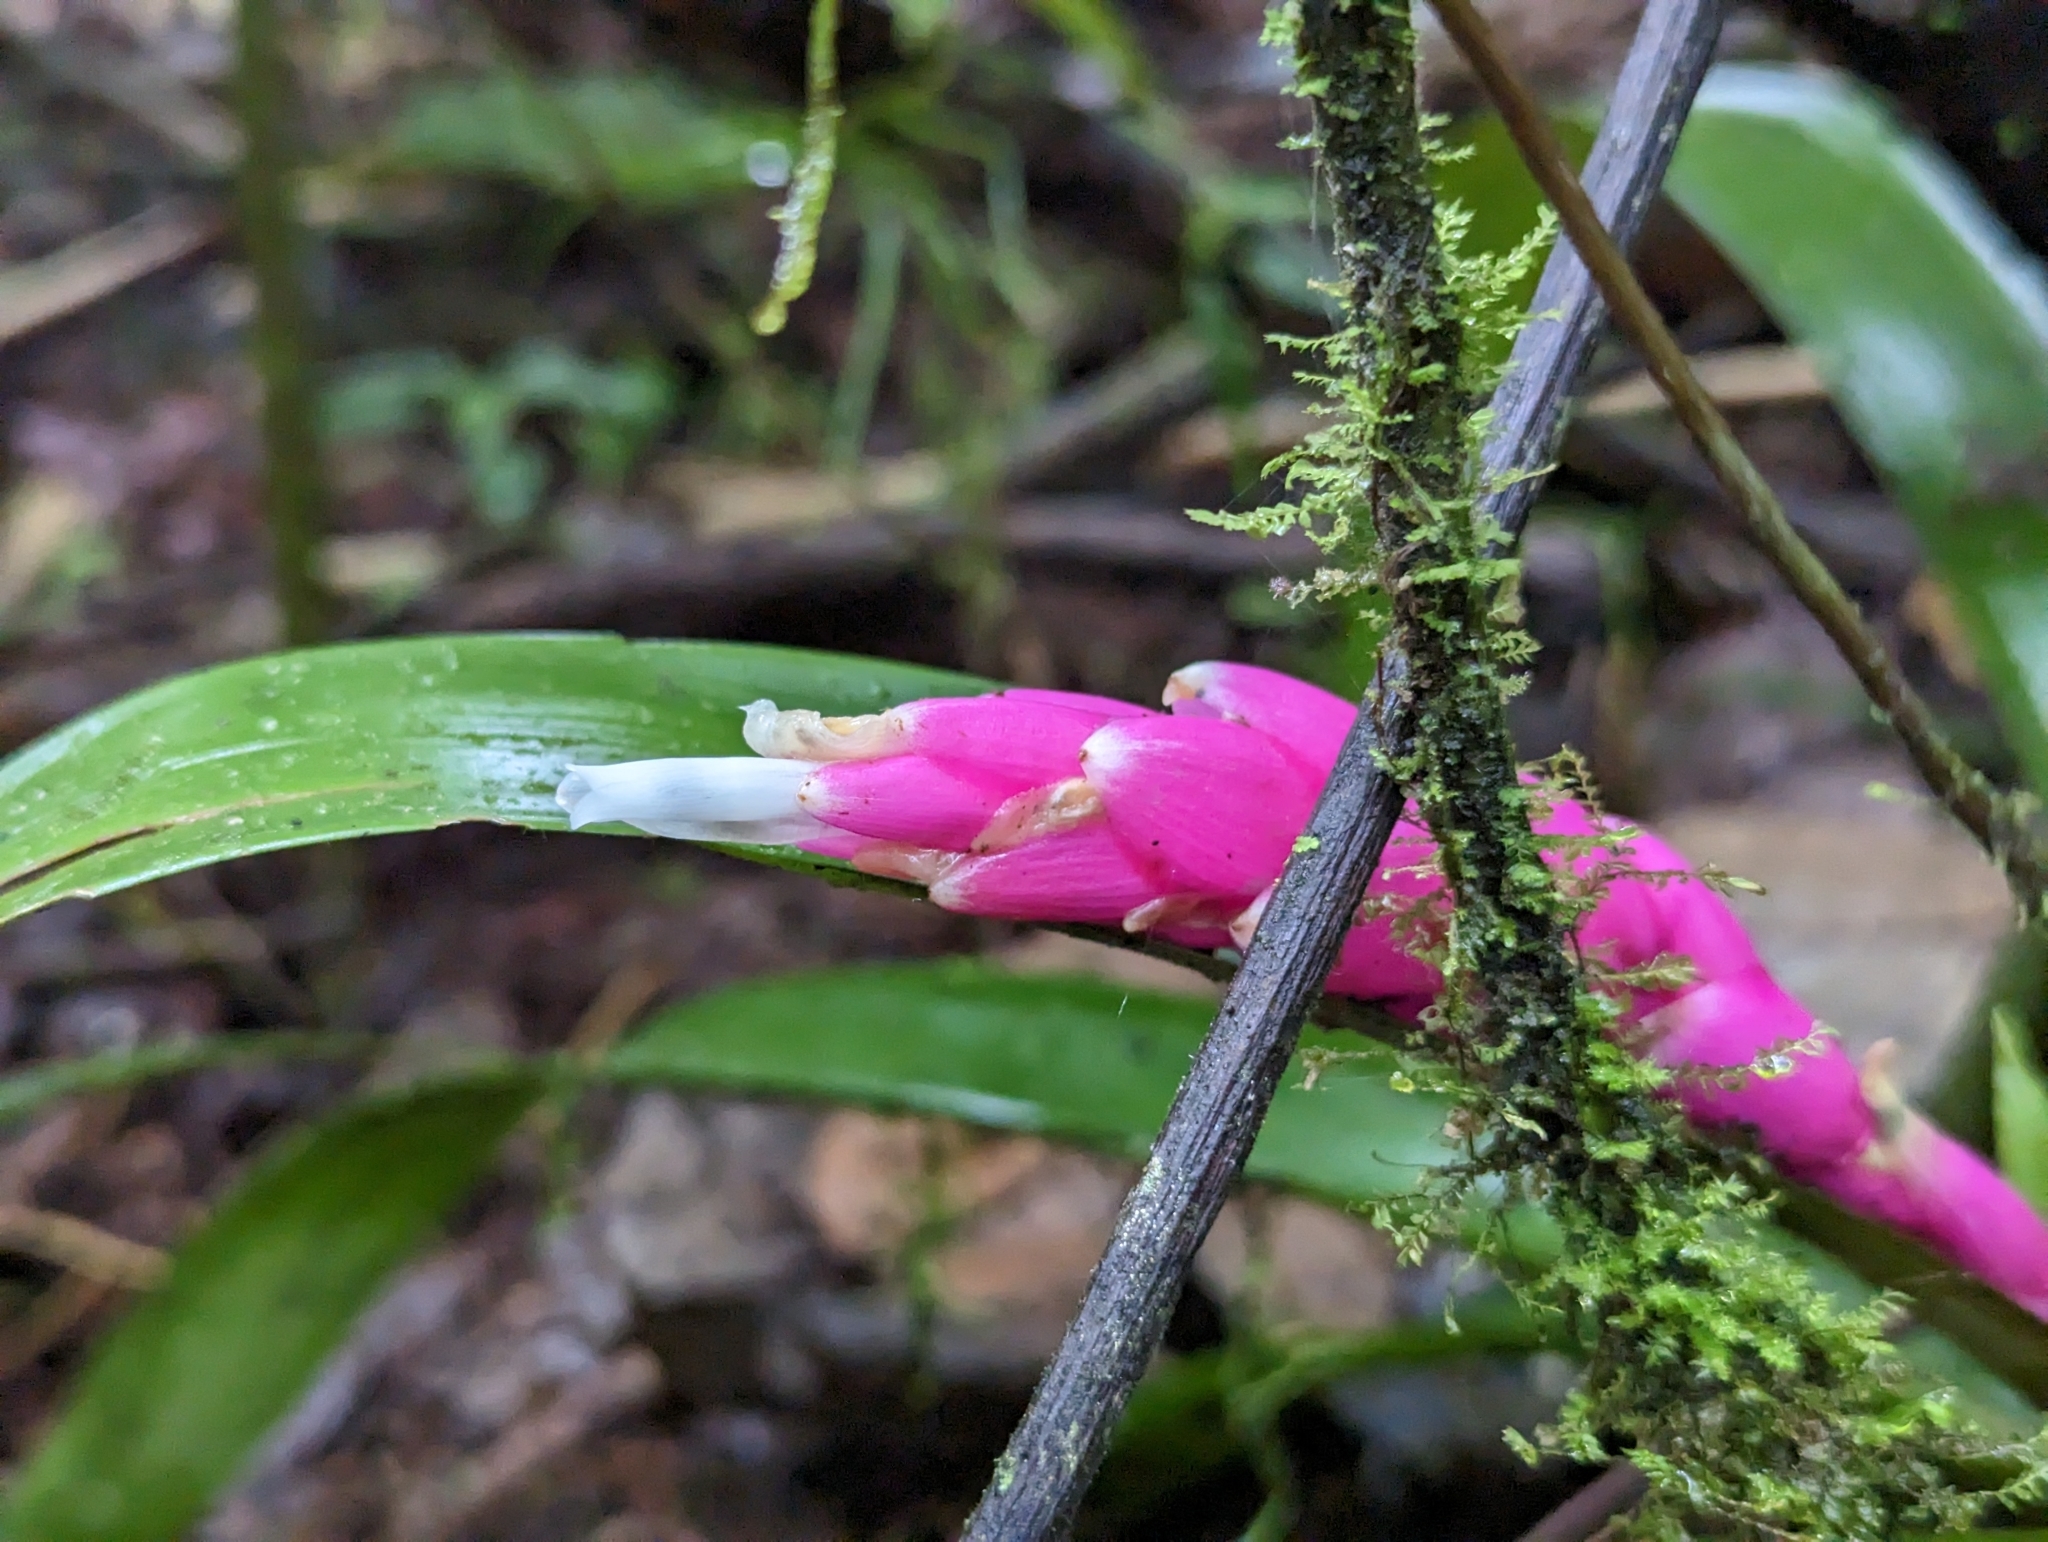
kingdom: Plantae
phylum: Tracheophyta
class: Liliopsida
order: Poales
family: Bromeliaceae
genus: Guzmania
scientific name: Guzmania remyi
